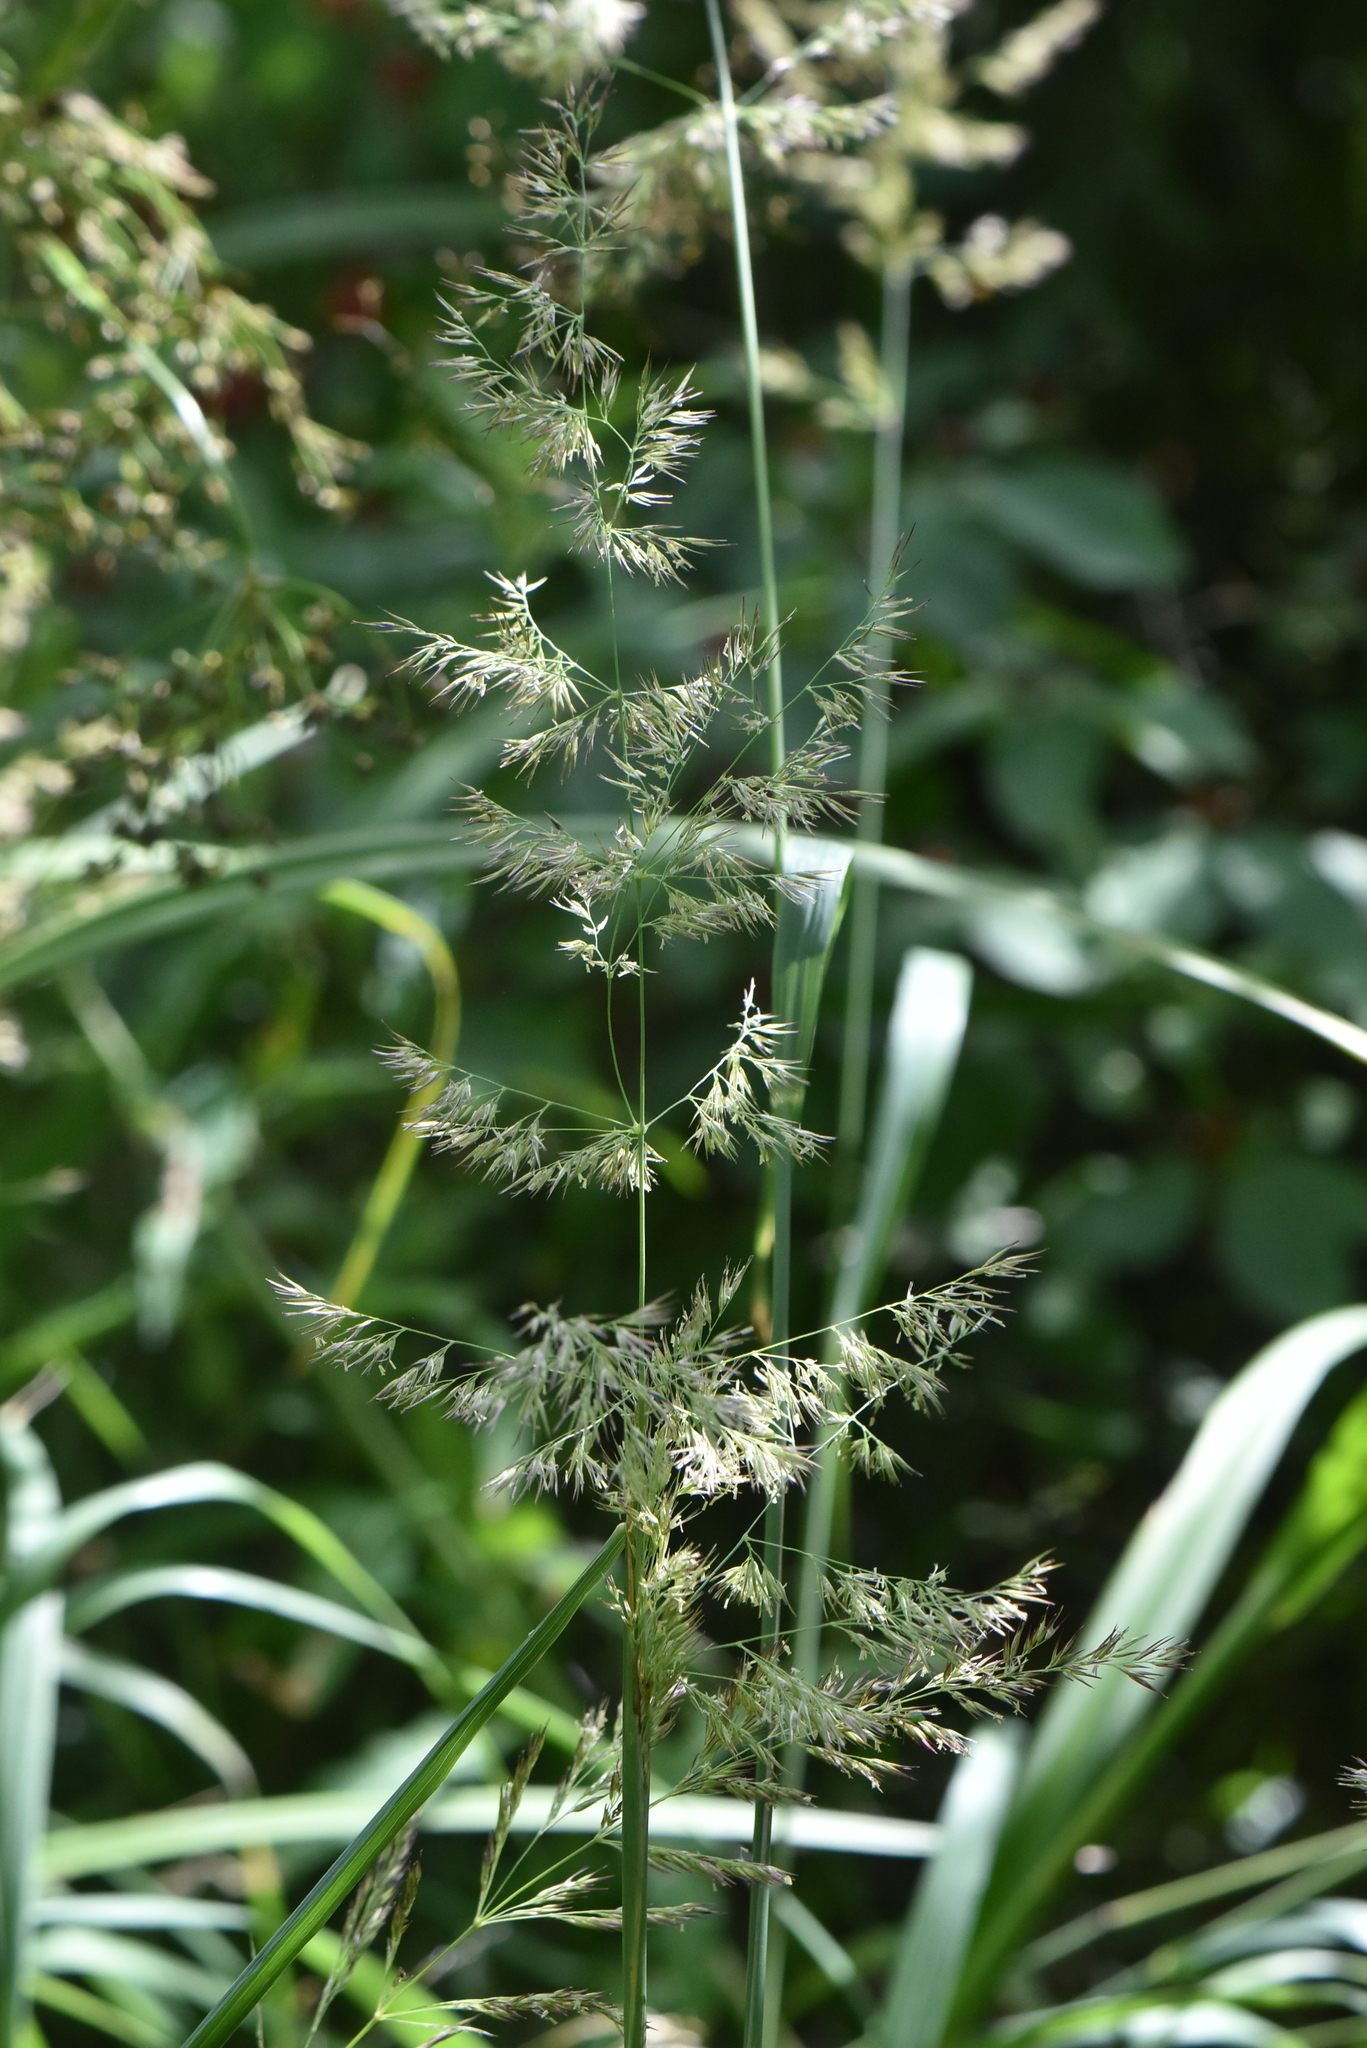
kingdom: Plantae
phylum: Tracheophyta
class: Liliopsida
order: Poales
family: Poaceae
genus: Calamagrostis
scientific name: Calamagrostis epigejos
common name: Wood small-reed
